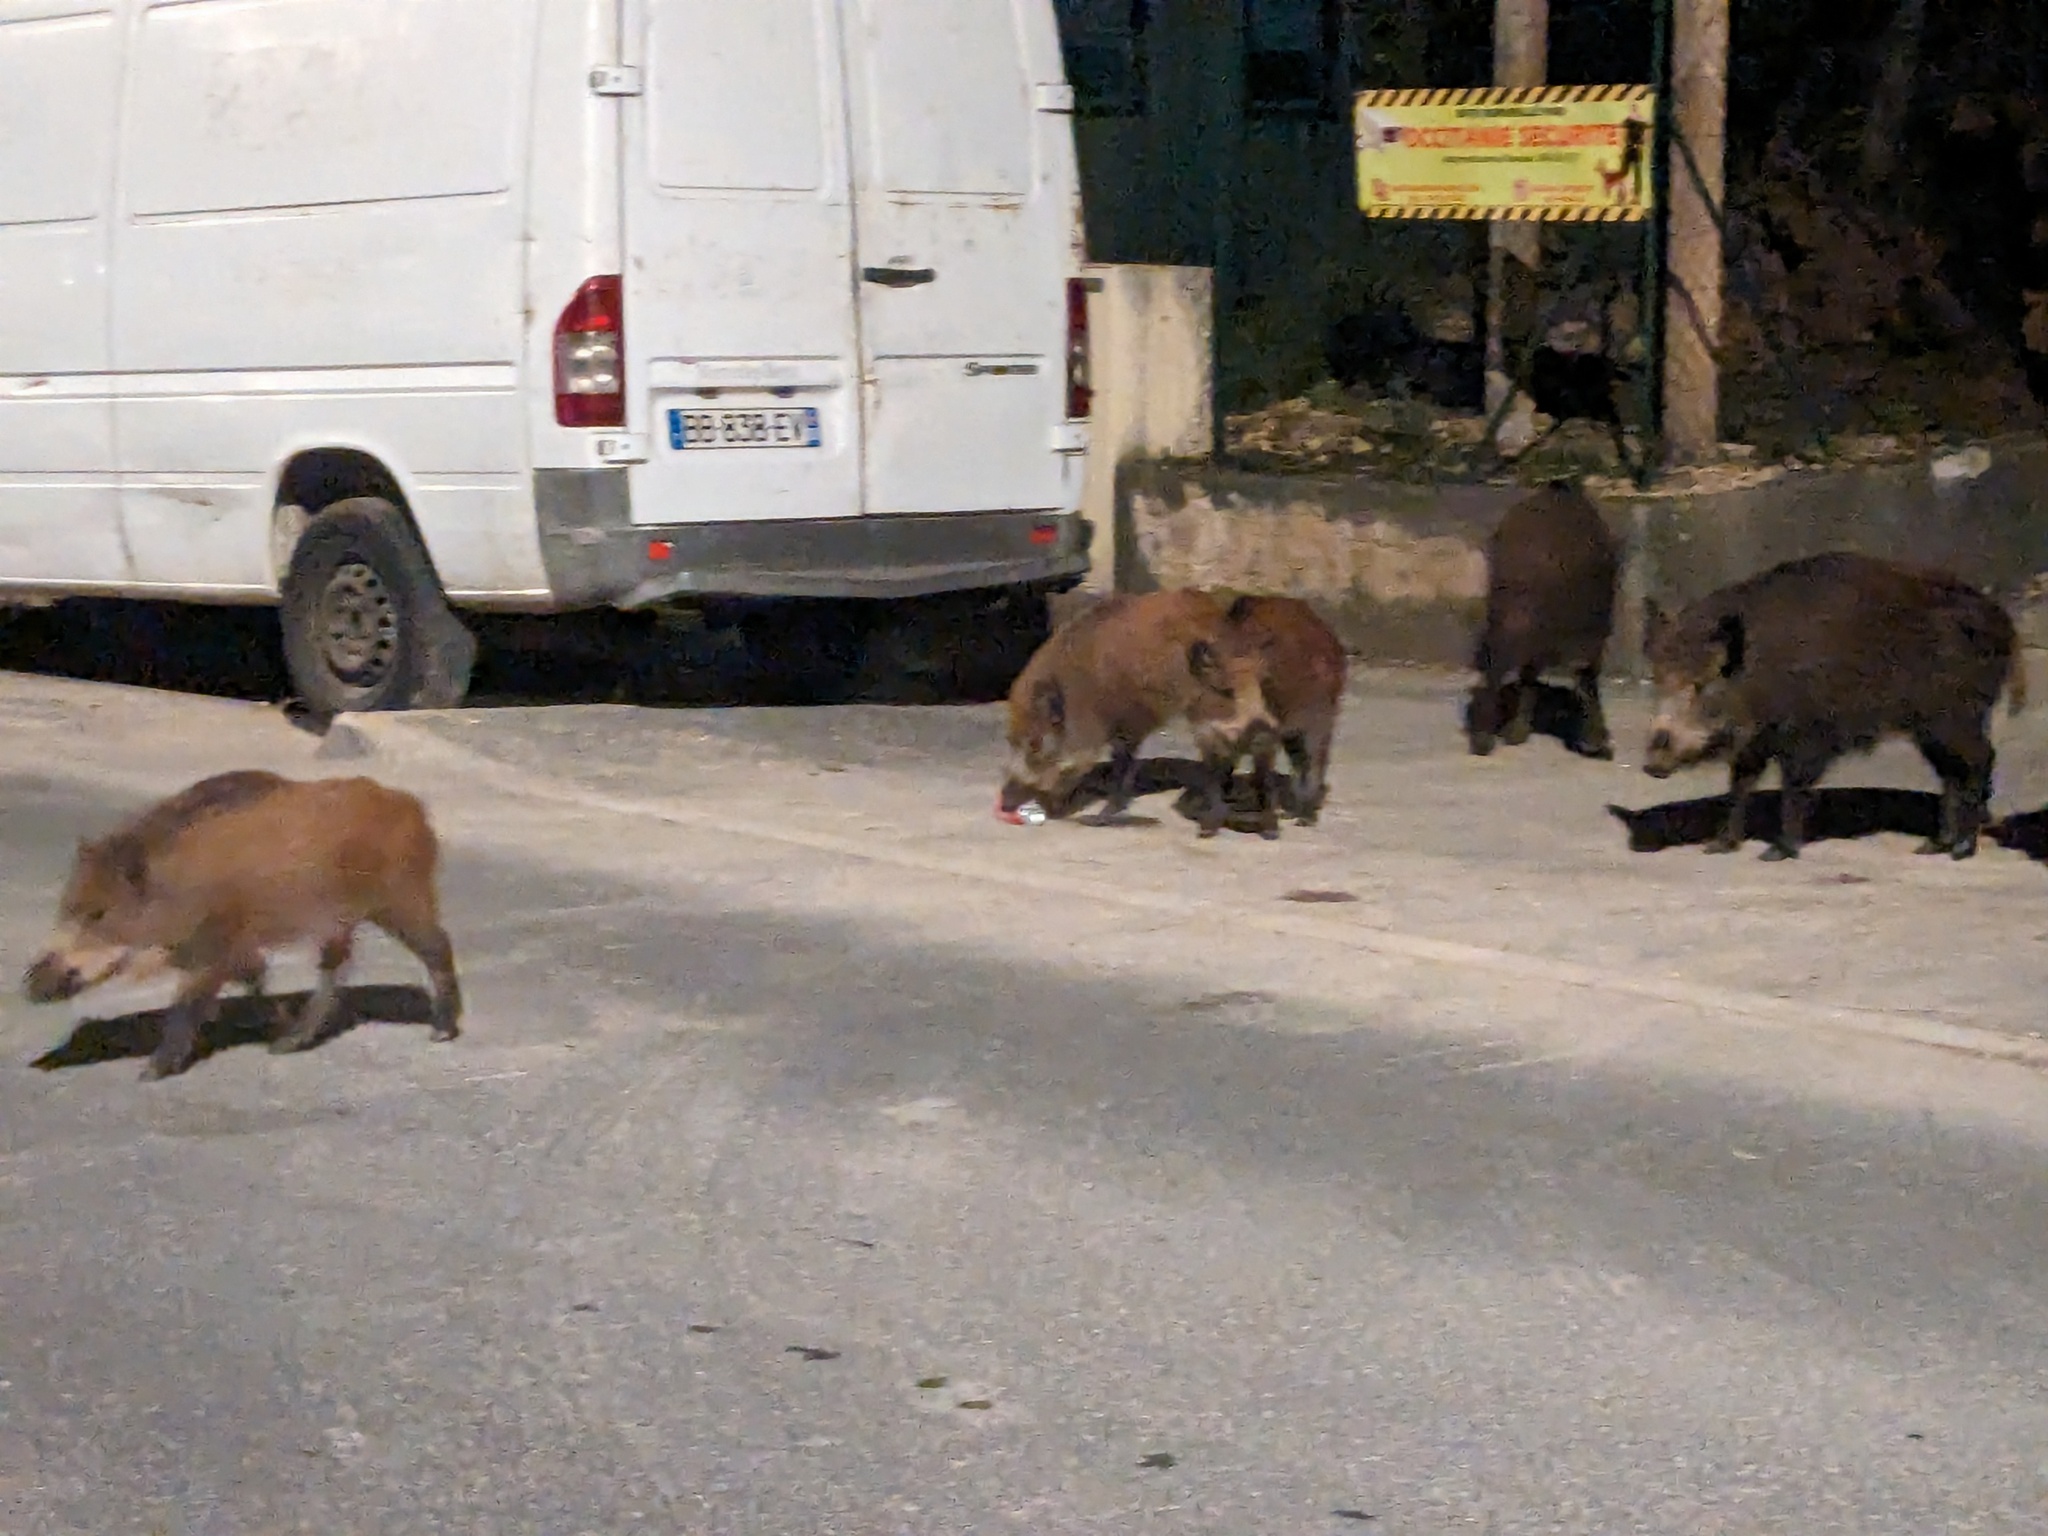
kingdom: Animalia
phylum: Chordata
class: Mammalia
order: Artiodactyla
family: Suidae
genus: Sus
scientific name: Sus scrofa
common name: Wild boar
